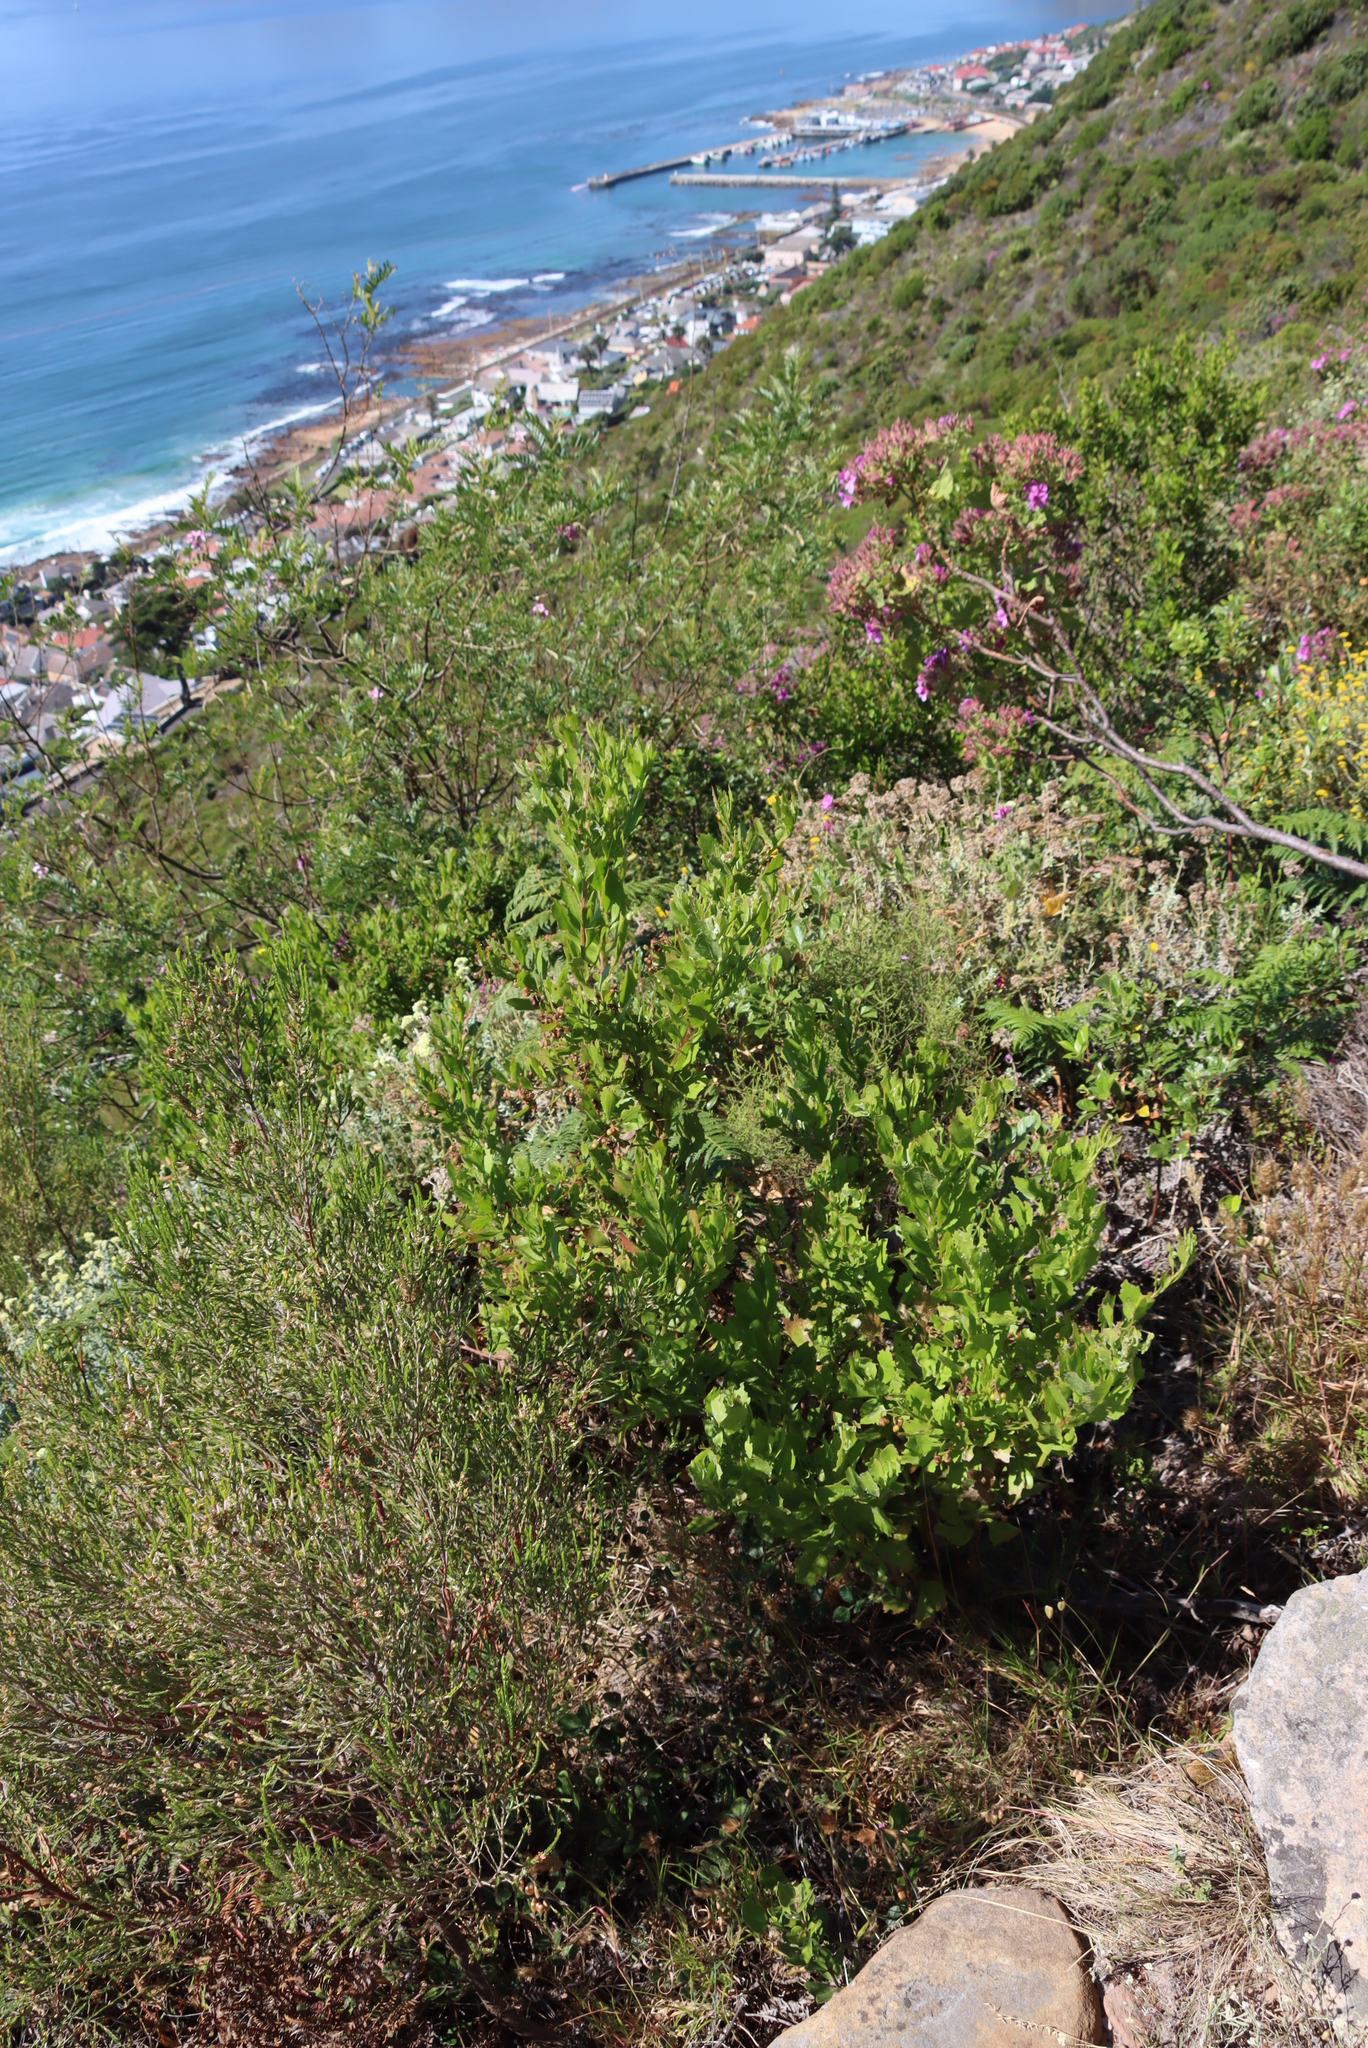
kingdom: Plantae
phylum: Tracheophyta
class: Magnoliopsida
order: Asterales
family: Asteraceae
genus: Osteospermum
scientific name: Osteospermum moniliferum
